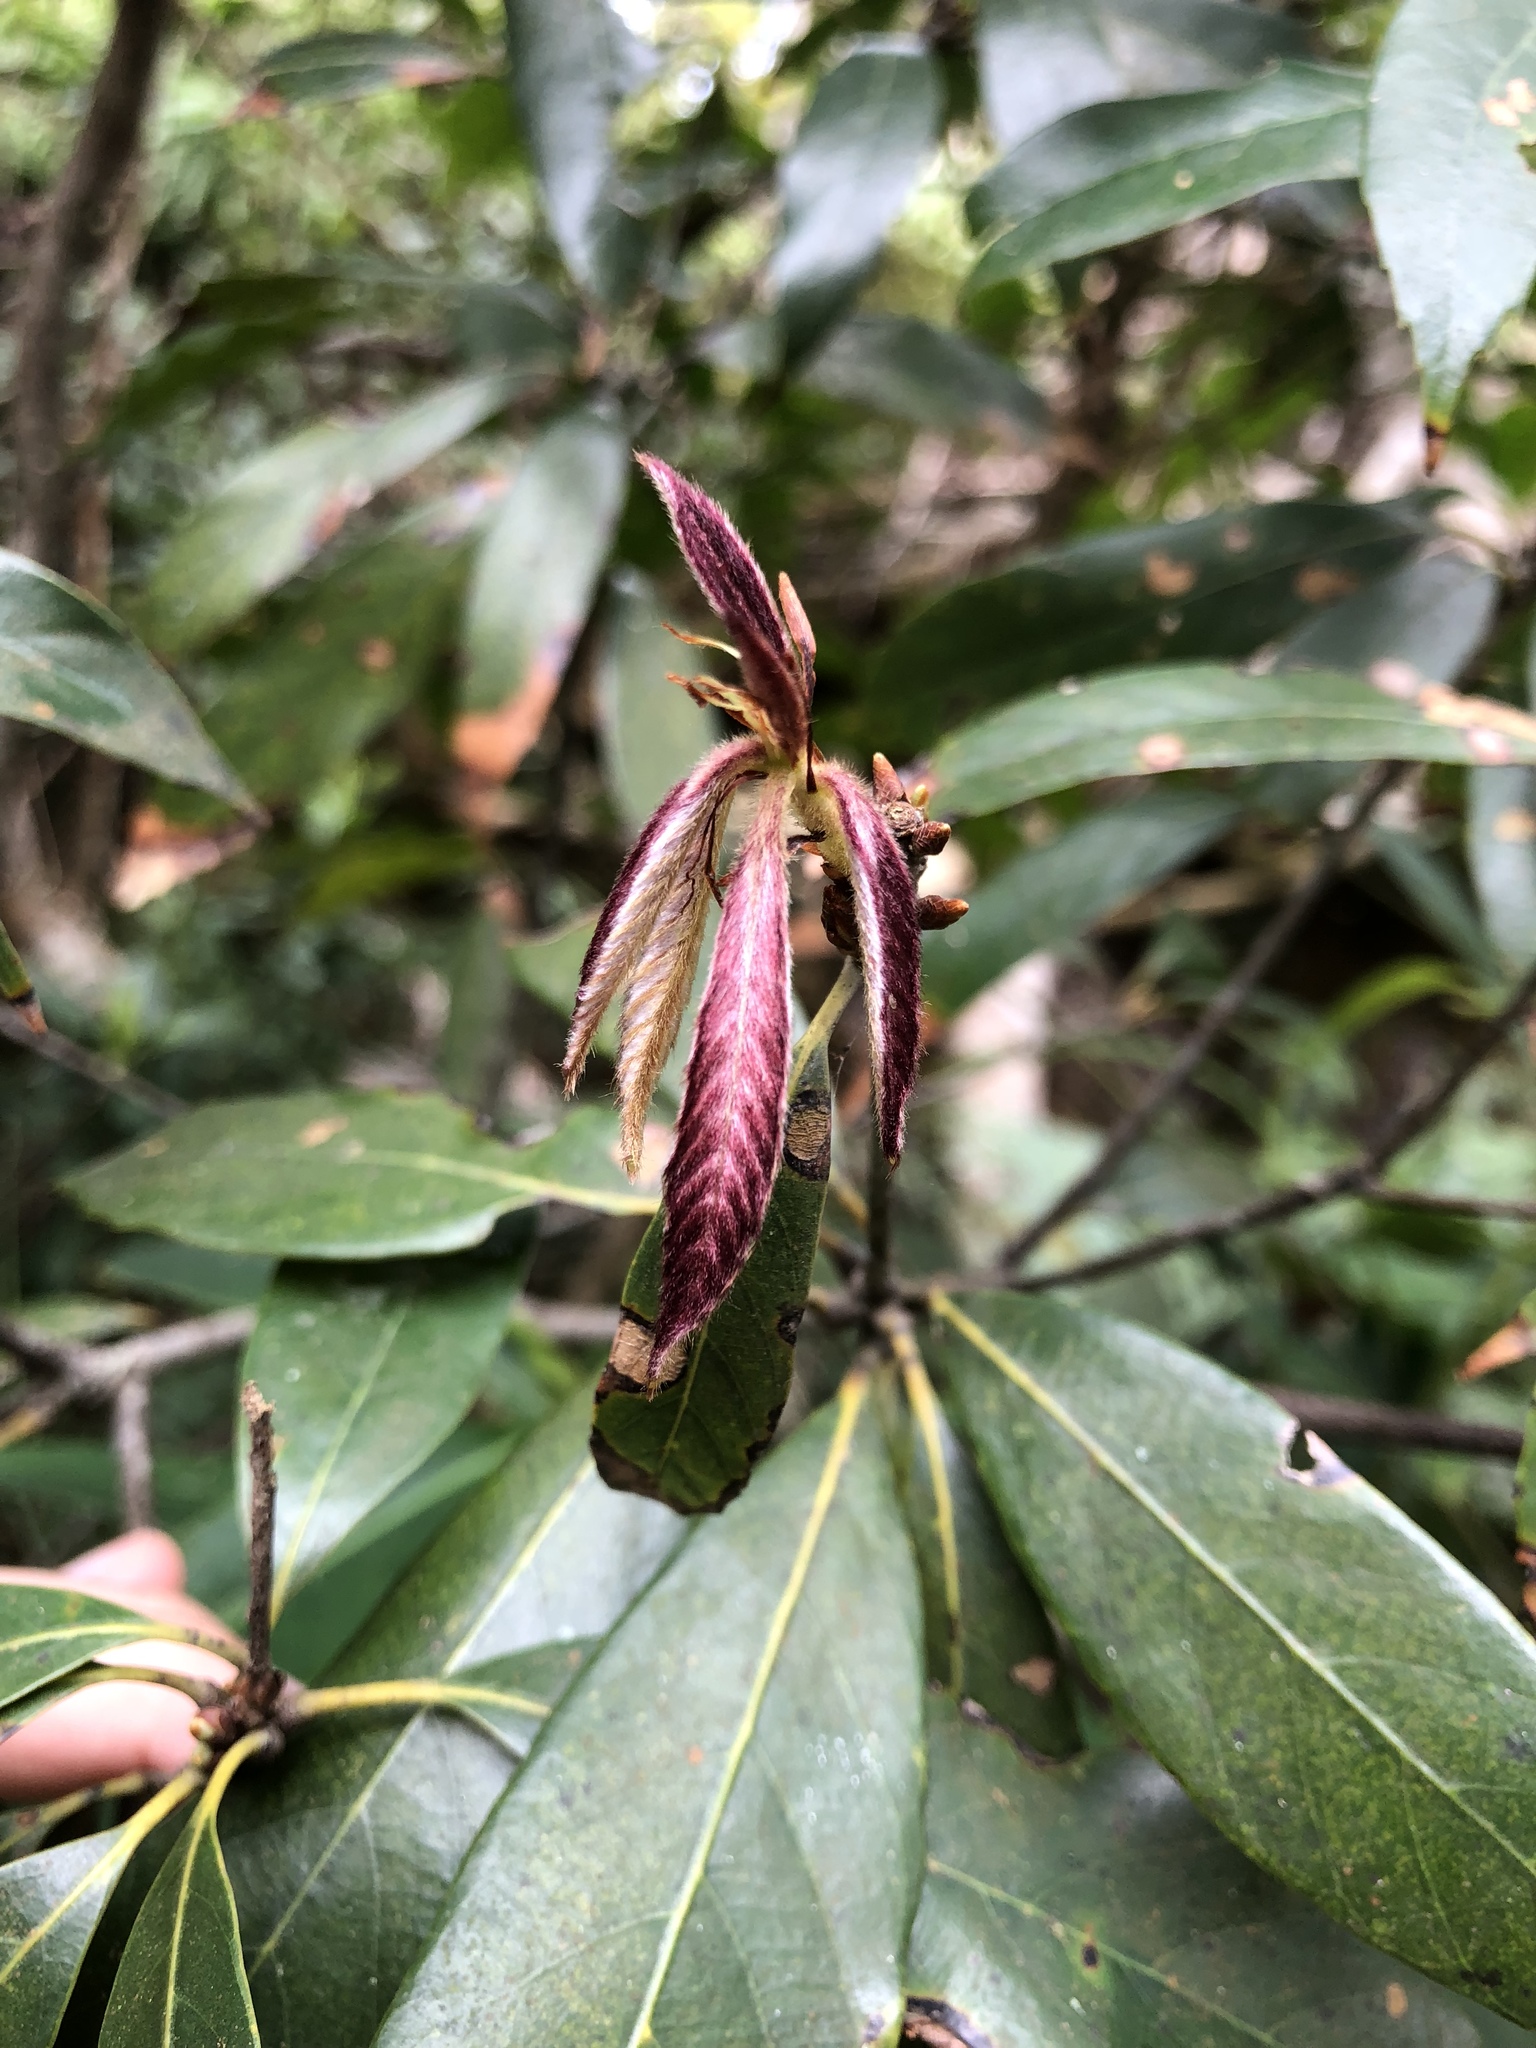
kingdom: Plantae
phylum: Tracheophyta
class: Magnoliopsida
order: Fagales
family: Fagaceae
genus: Quercus
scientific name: Quercus pachyloma
